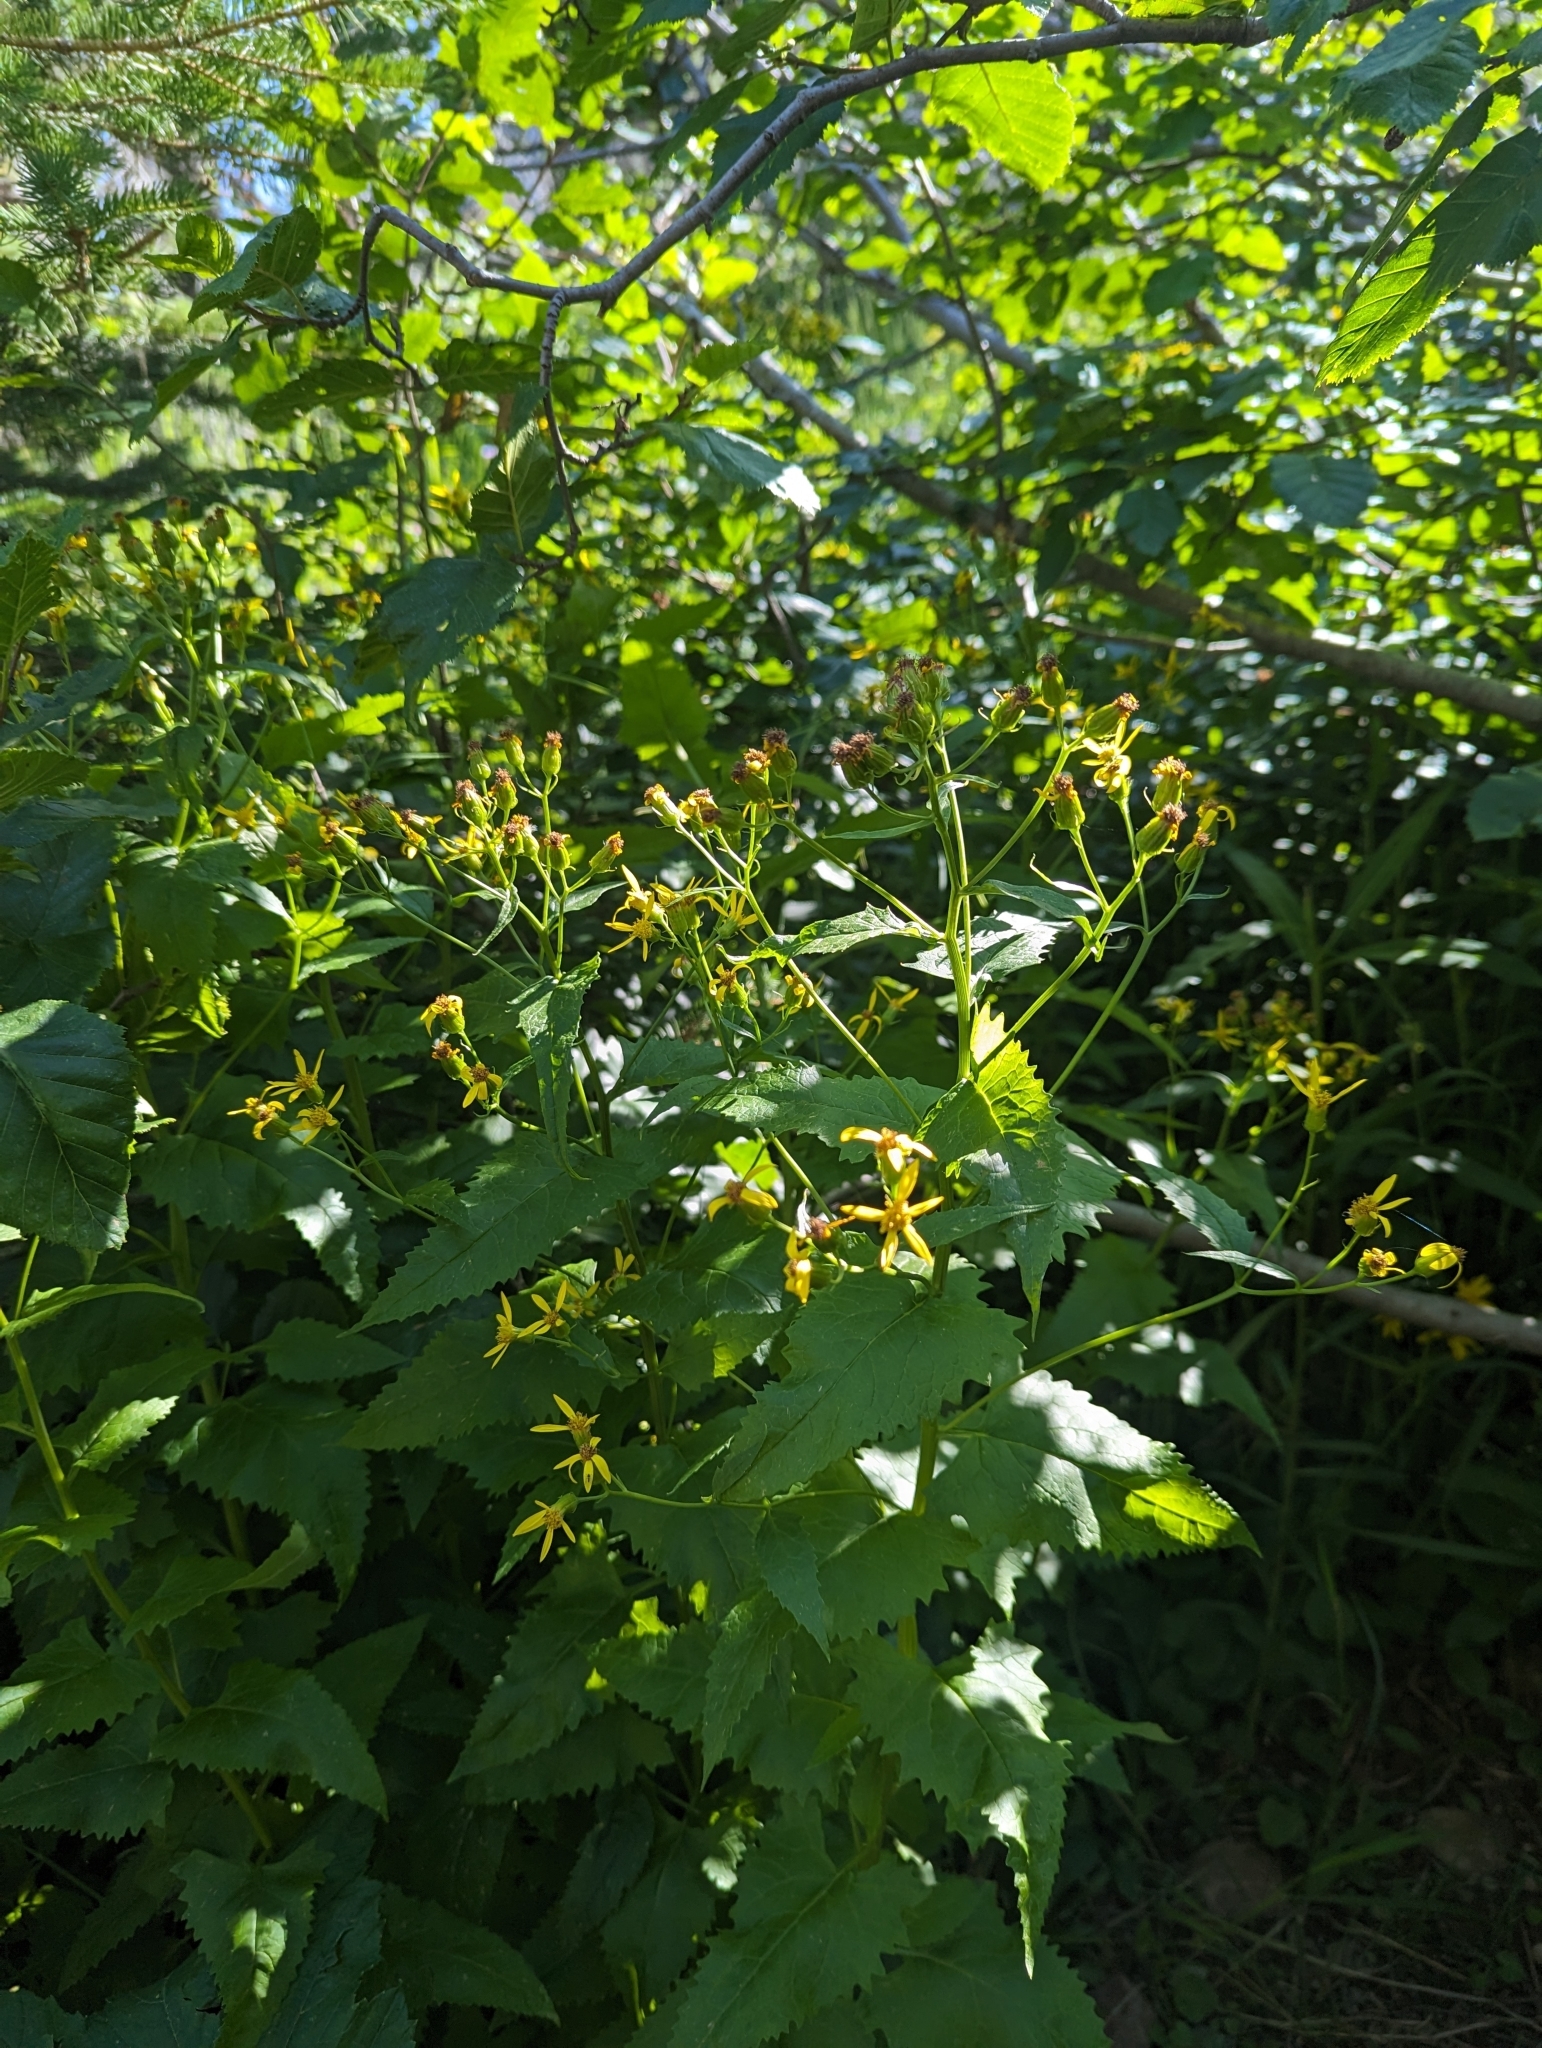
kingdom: Plantae
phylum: Tracheophyta
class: Magnoliopsida
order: Asterales
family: Asteraceae
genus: Senecio
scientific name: Senecio triangularis
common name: Arrowleaf butterweed
